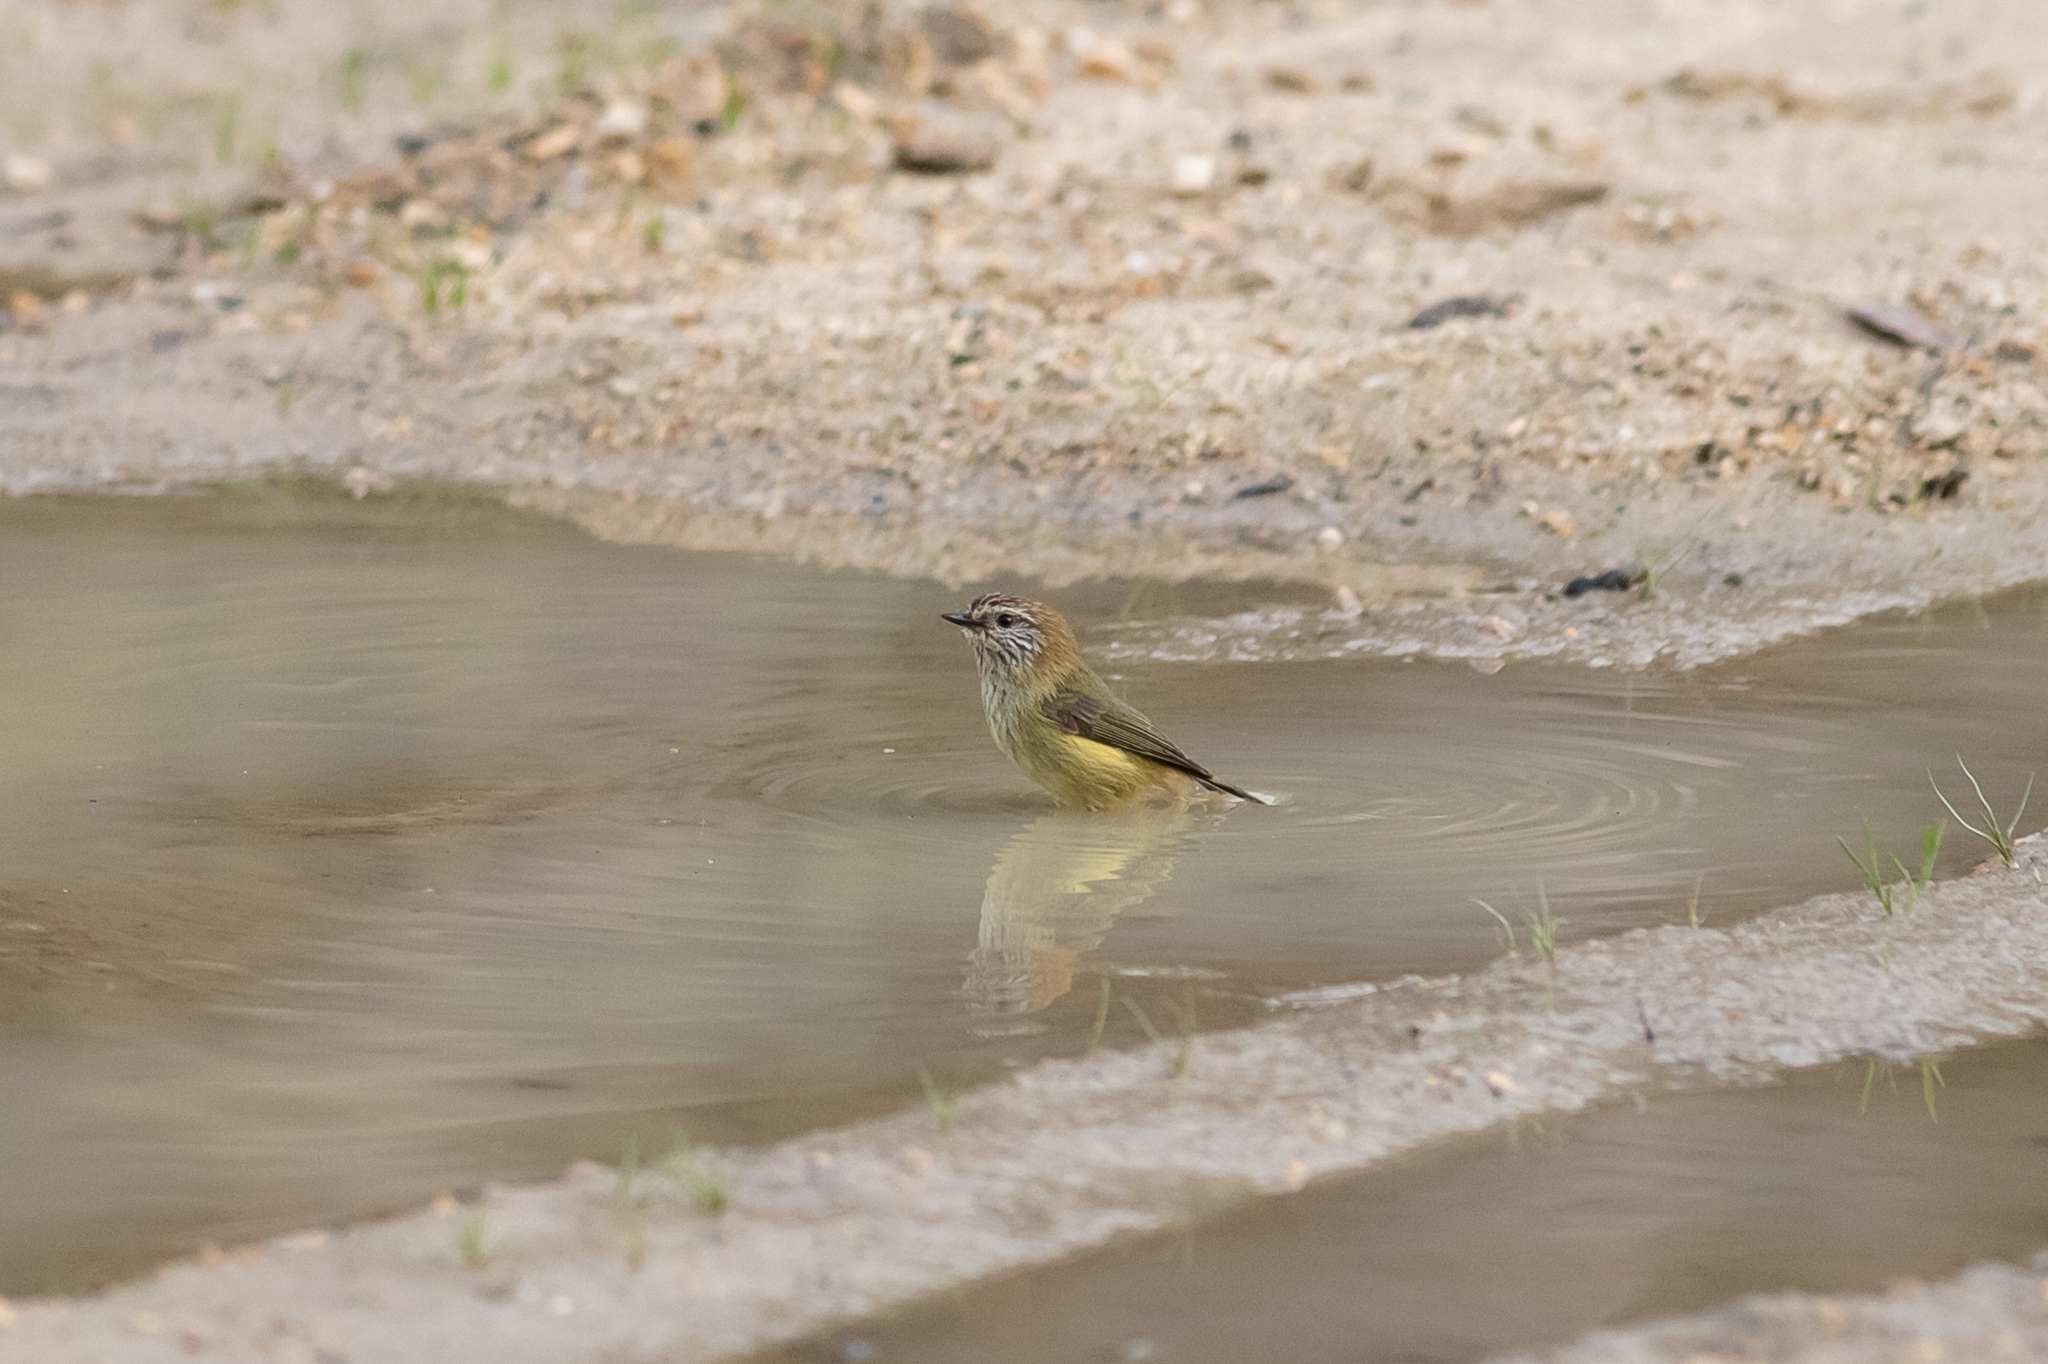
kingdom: Animalia
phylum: Chordata
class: Aves
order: Passeriformes
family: Acanthizidae
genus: Acanthiza
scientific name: Acanthiza lineata
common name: Striated thornbill
